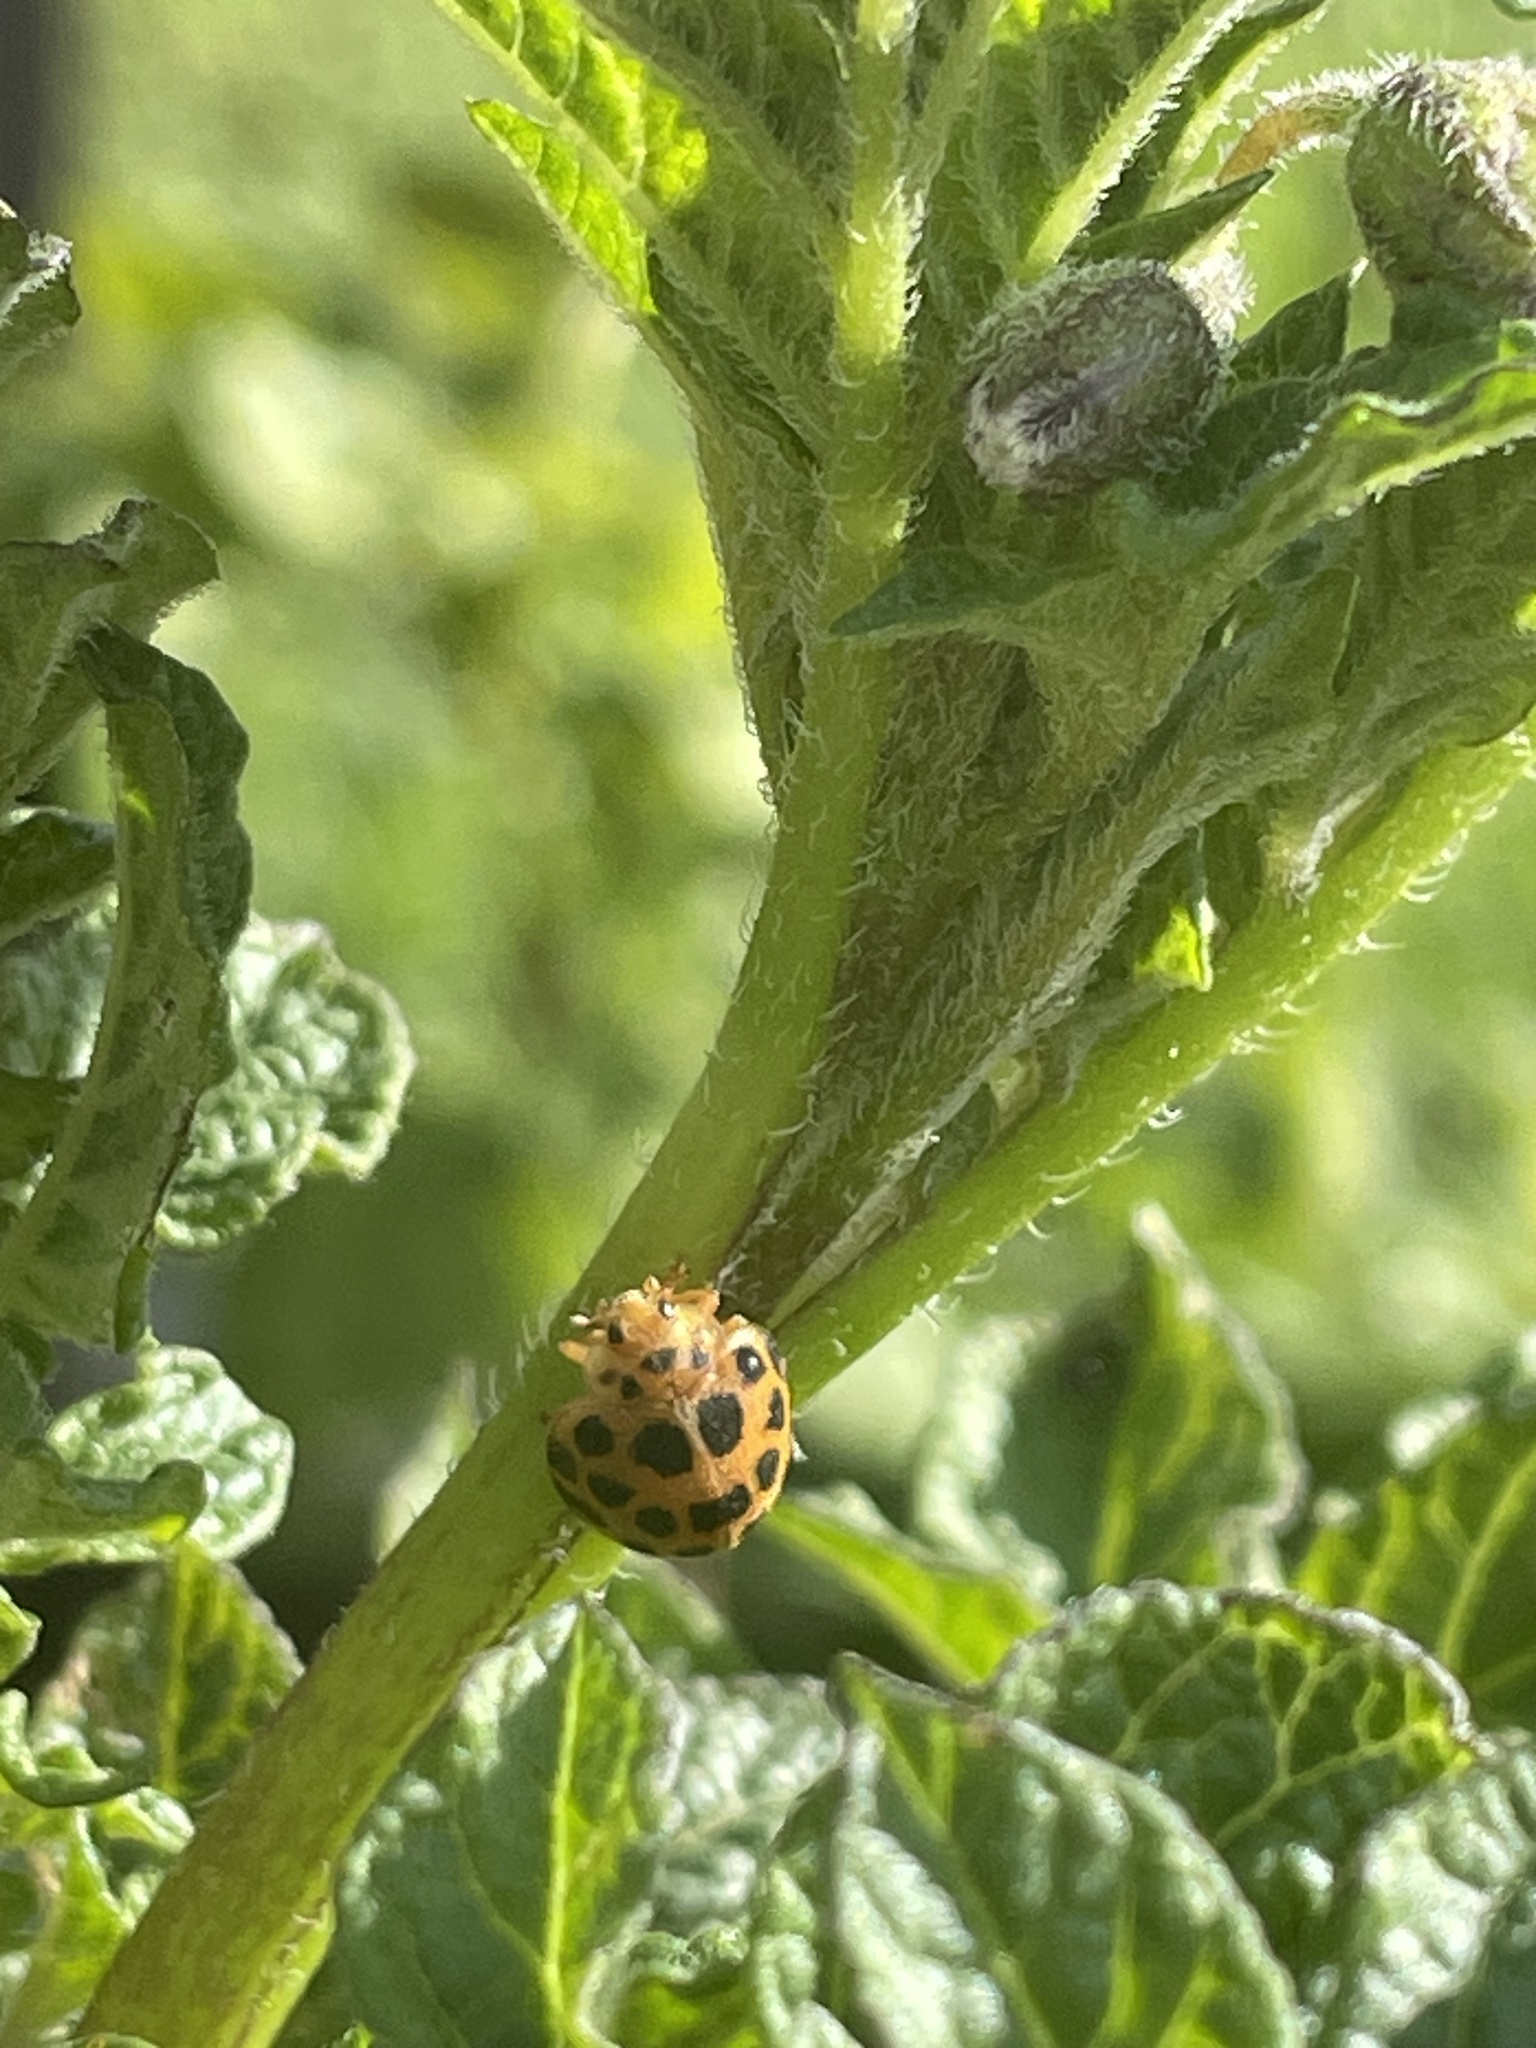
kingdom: Animalia
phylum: Arthropoda
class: Insecta
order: Coleoptera
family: Coccinellidae
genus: Henosepilachna
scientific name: Henosepilachna vigintioctopunctata
